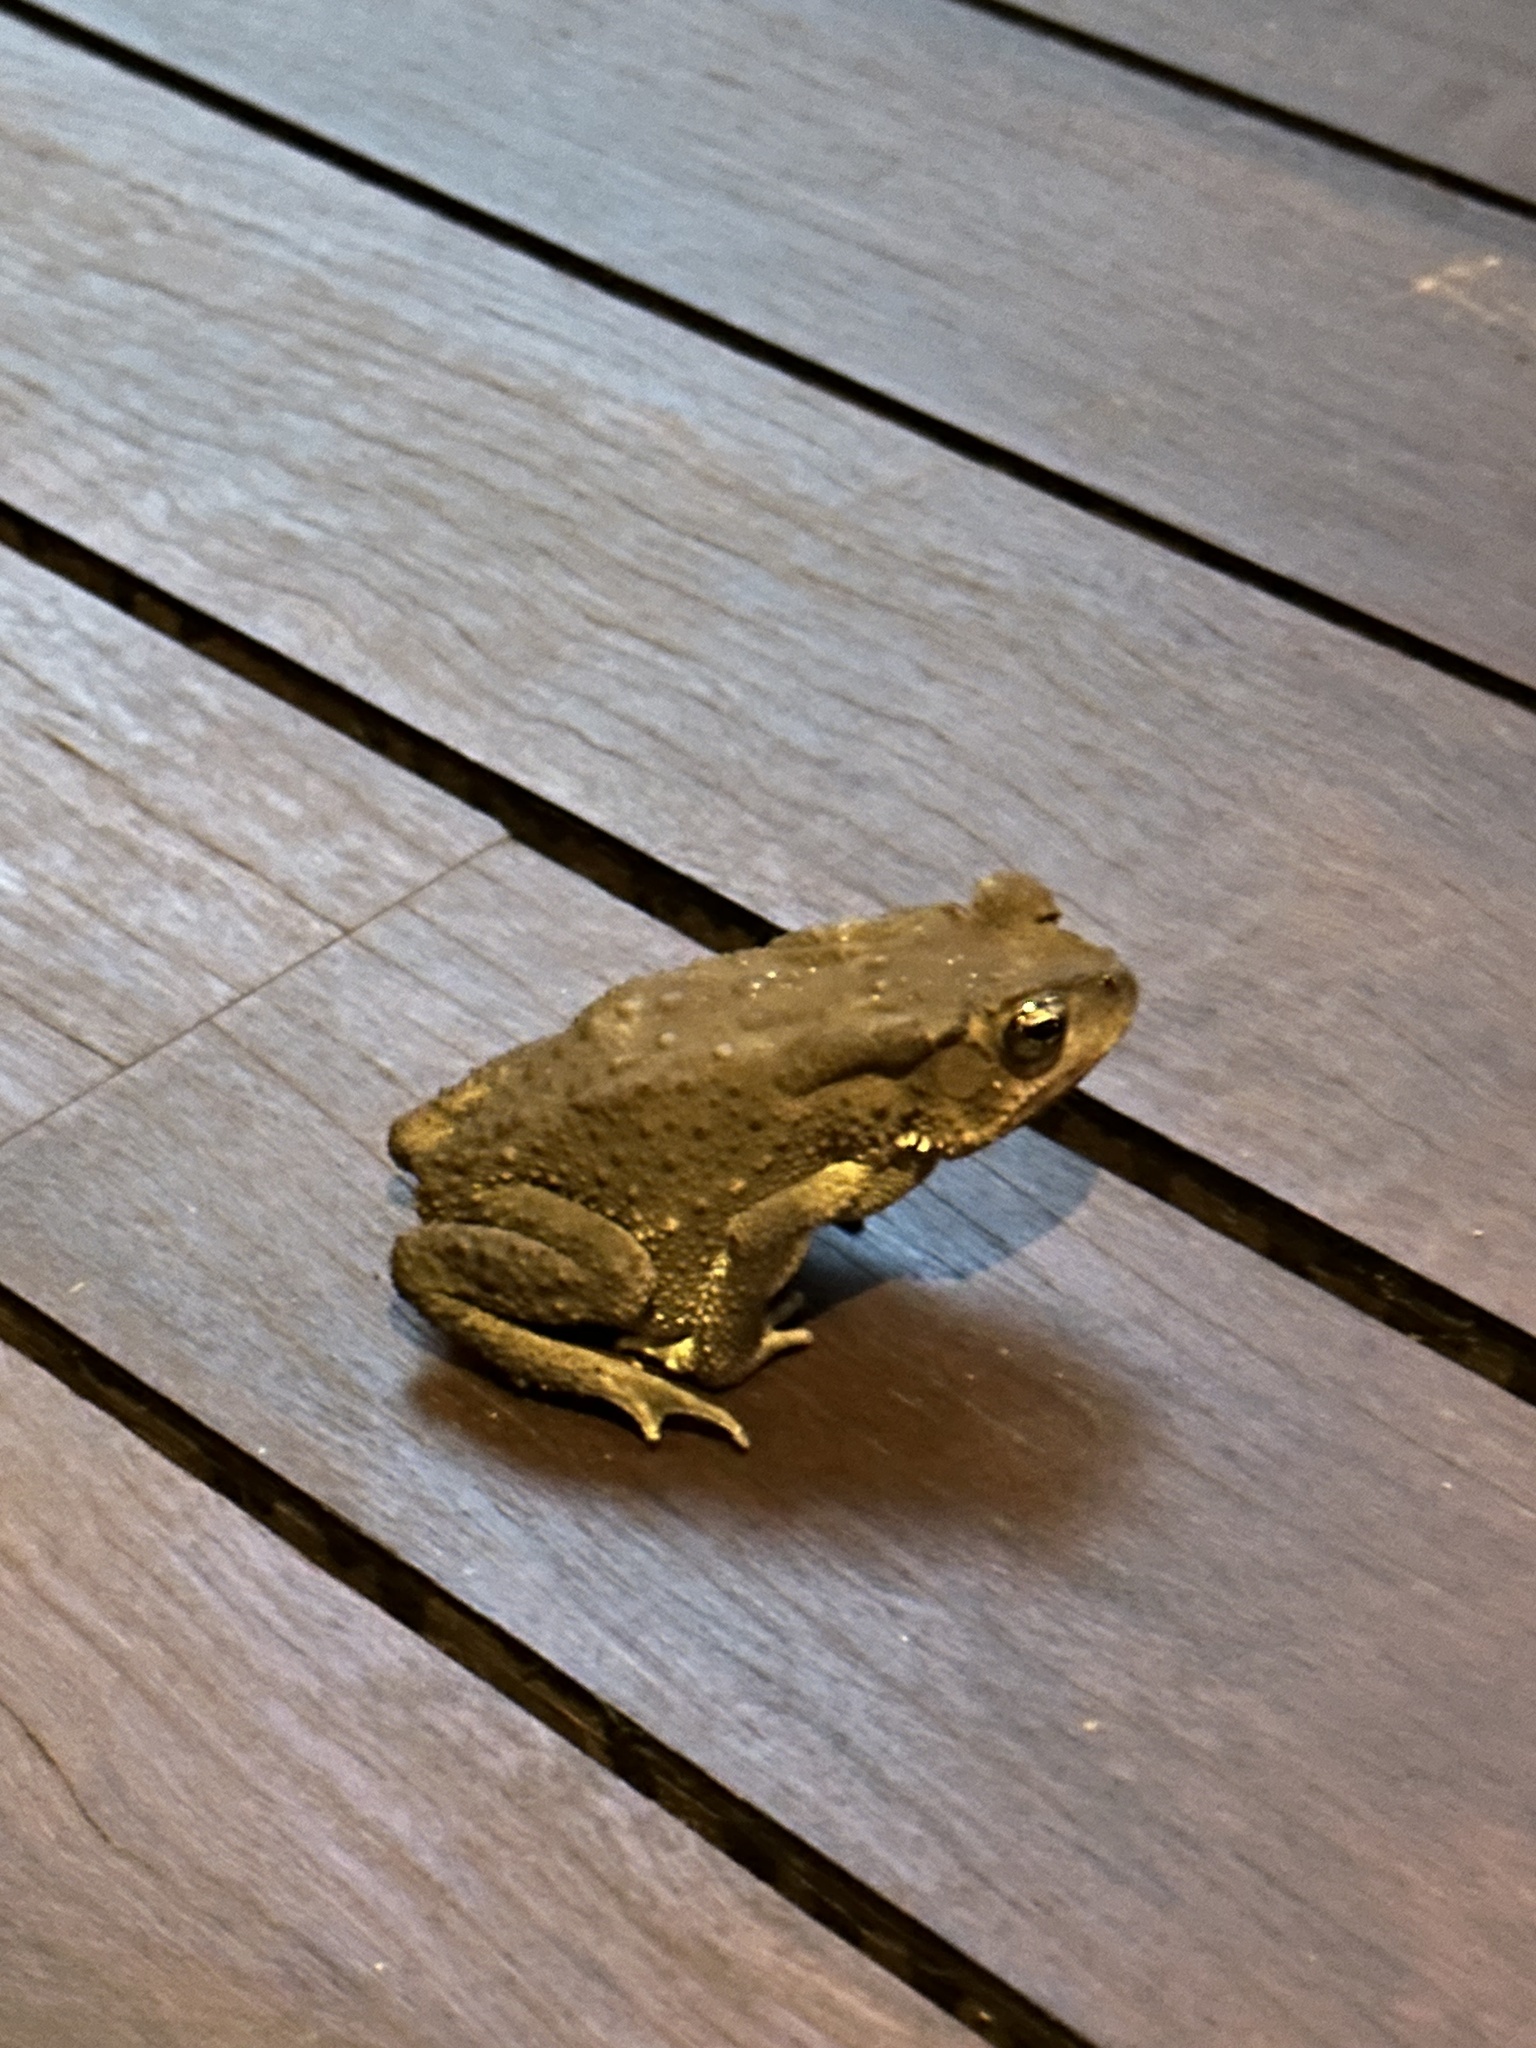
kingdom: Animalia
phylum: Chordata
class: Amphibia
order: Anura
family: Bufonidae
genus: Duttaphrynus
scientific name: Duttaphrynus melanostictus
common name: Common sunda toad
